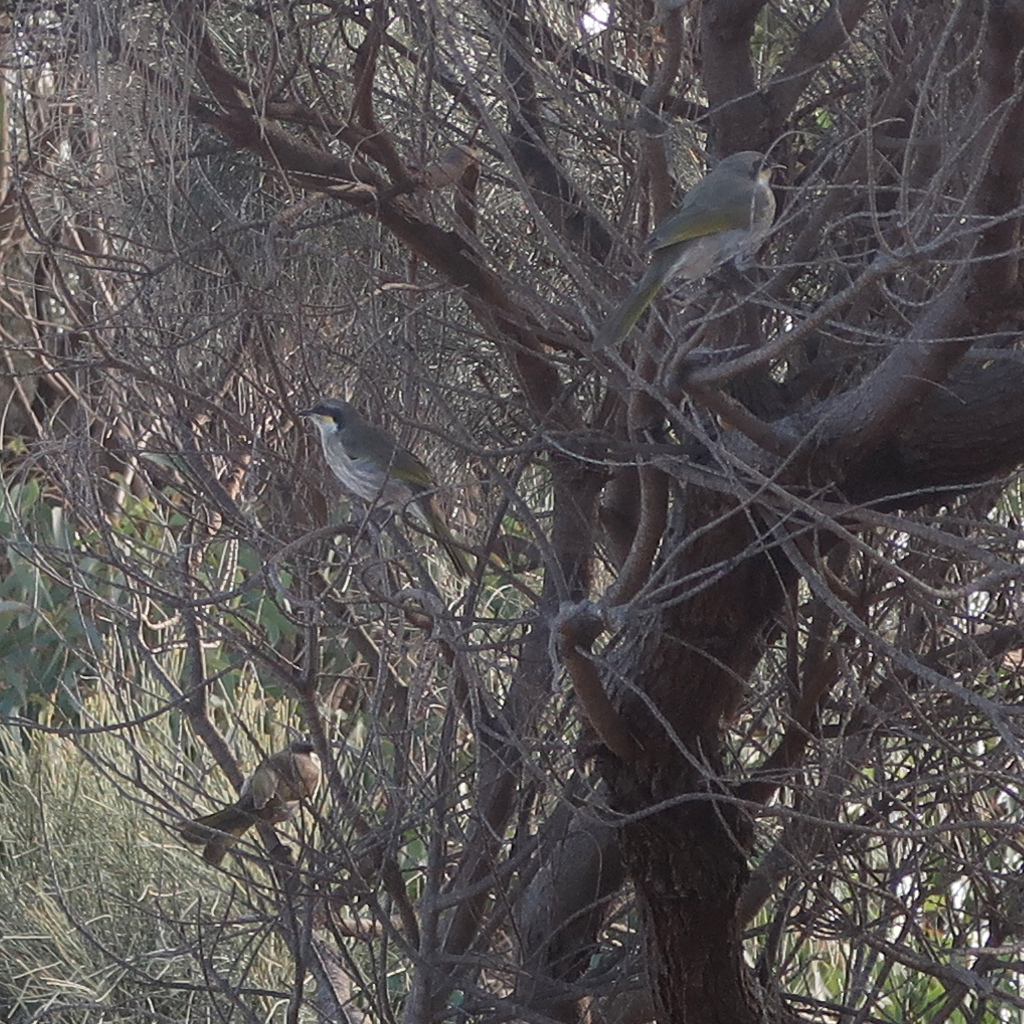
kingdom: Animalia
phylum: Chordata
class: Aves
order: Passeriformes
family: Meliphagidae
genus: Gavicalis
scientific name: Gavicalis virescens
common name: Singing honeyeater
